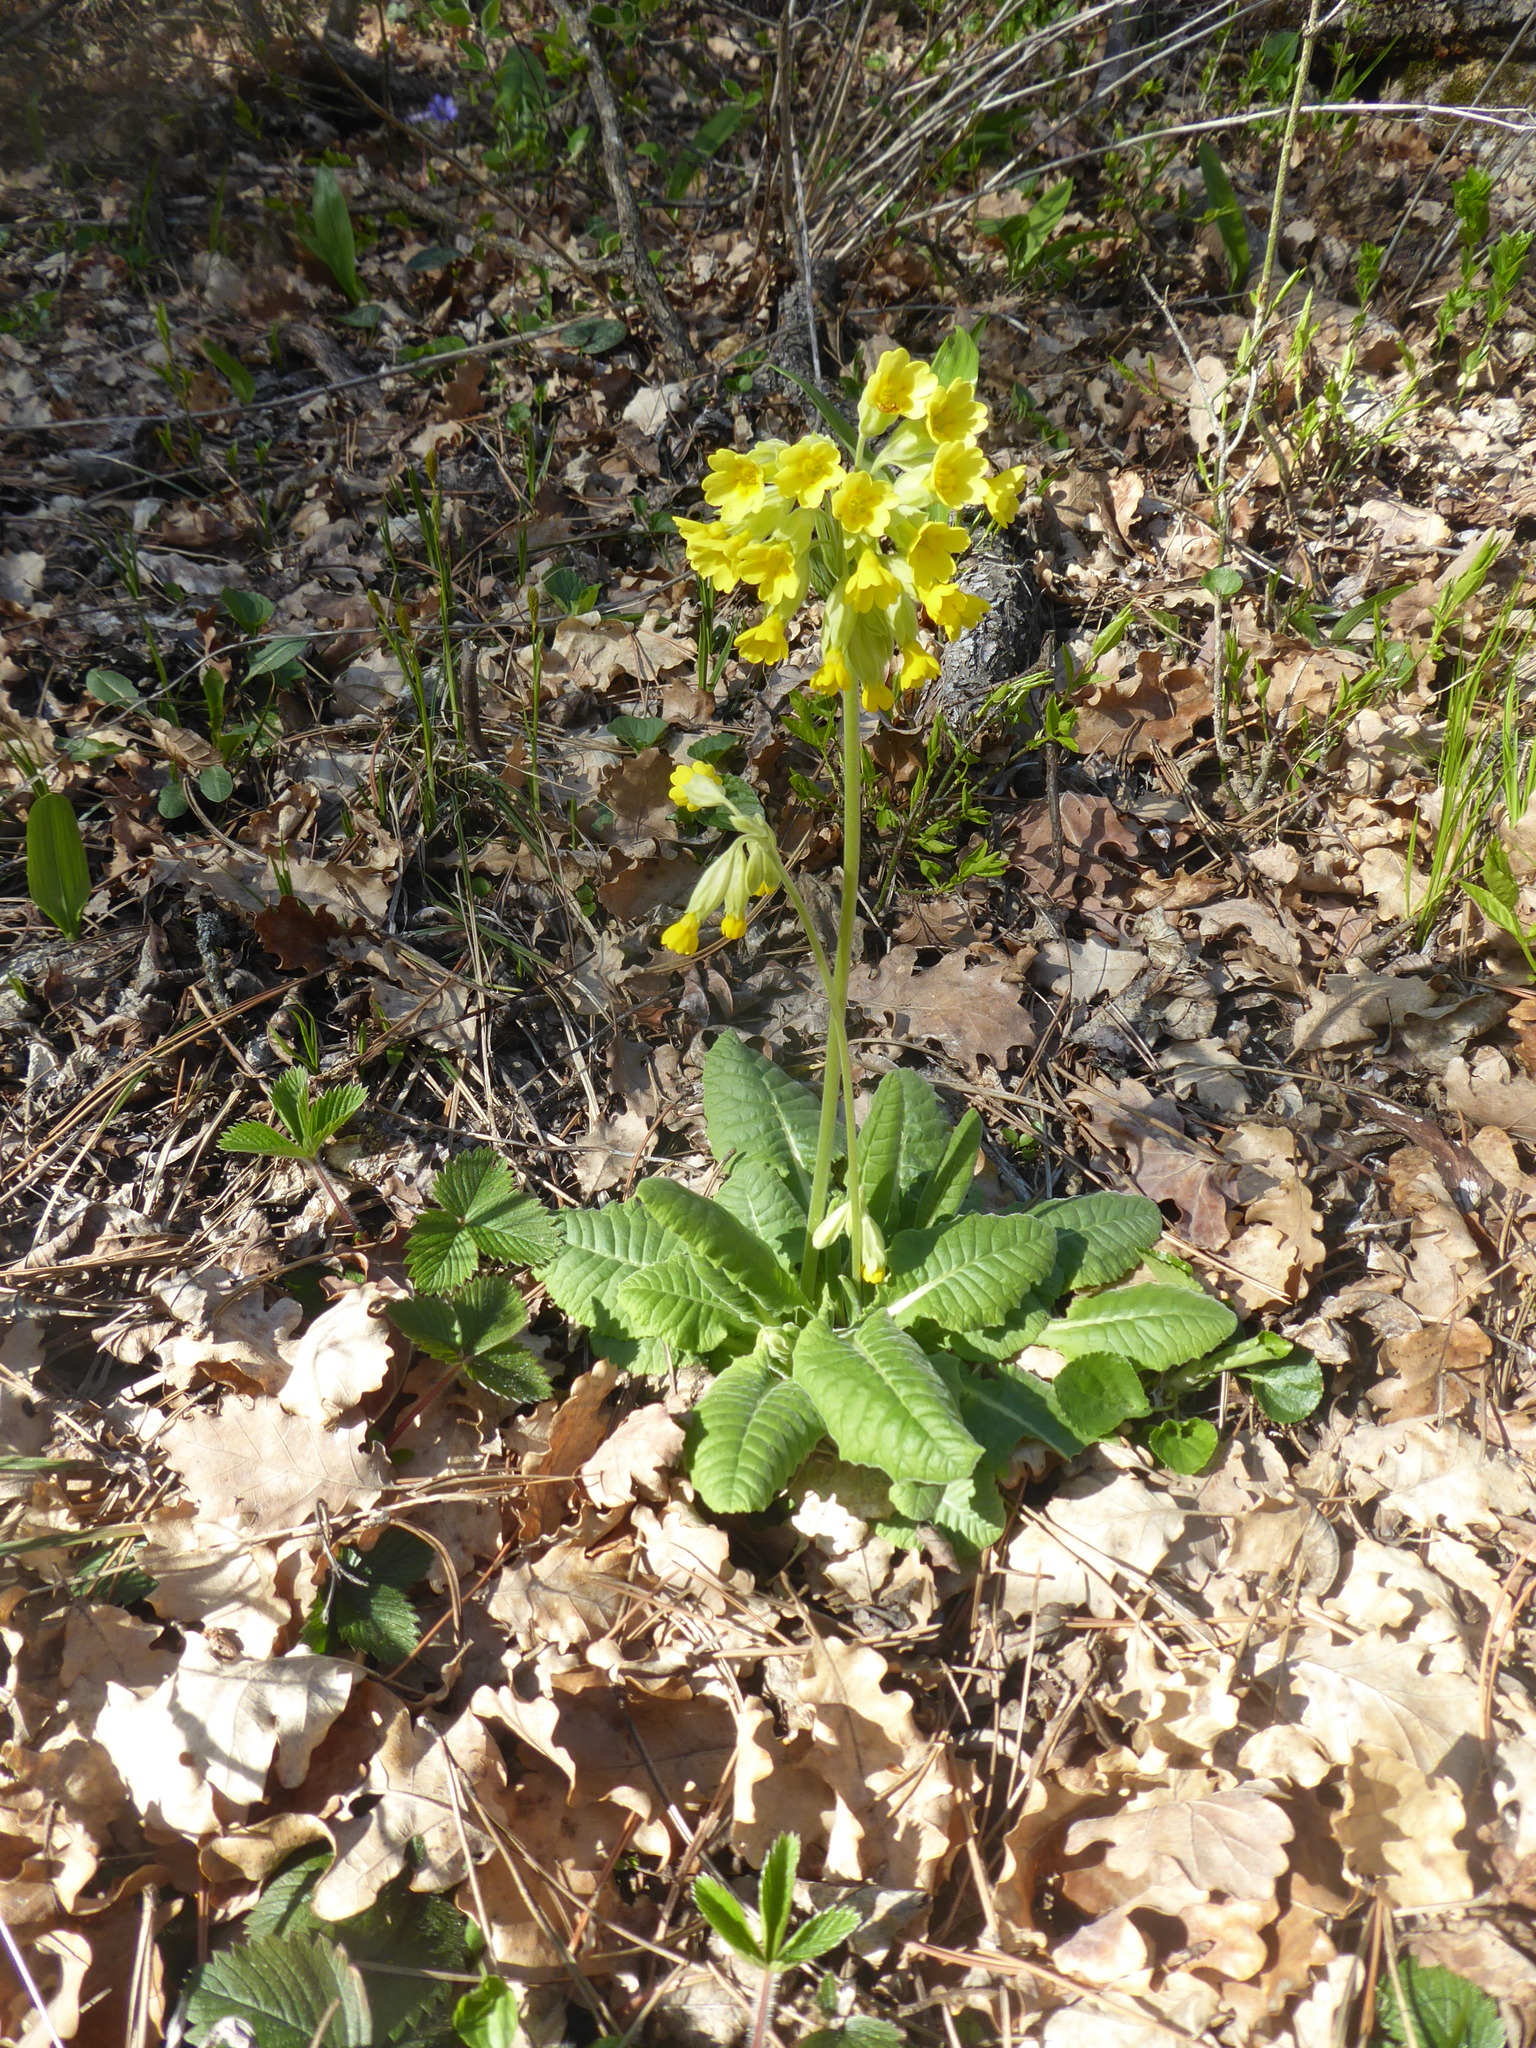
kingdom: Plantae
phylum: Tracheophyta
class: Magnoliopsida
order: Ericales
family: Primulaceae
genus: Primula
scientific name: Primula veris
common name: Cowslip
